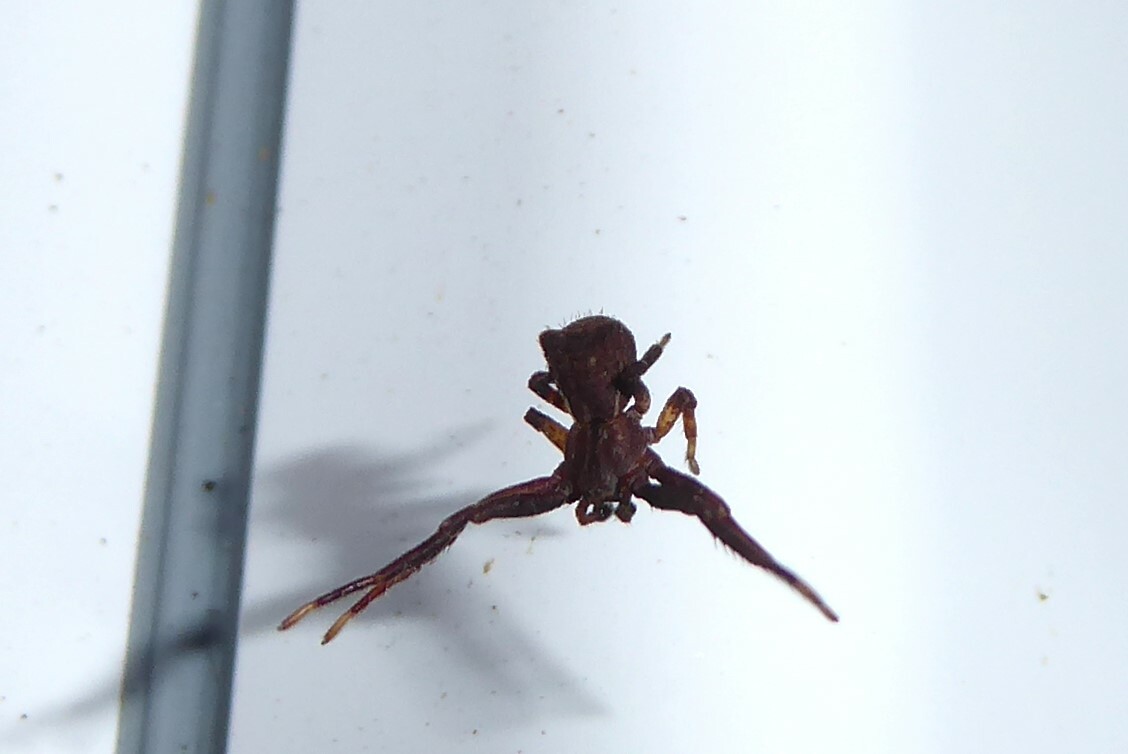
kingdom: Animalia
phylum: Arthropoda
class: Arachnida
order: Araneae
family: Thomisidae
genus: Sidymella
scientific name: Sidymella angularis
